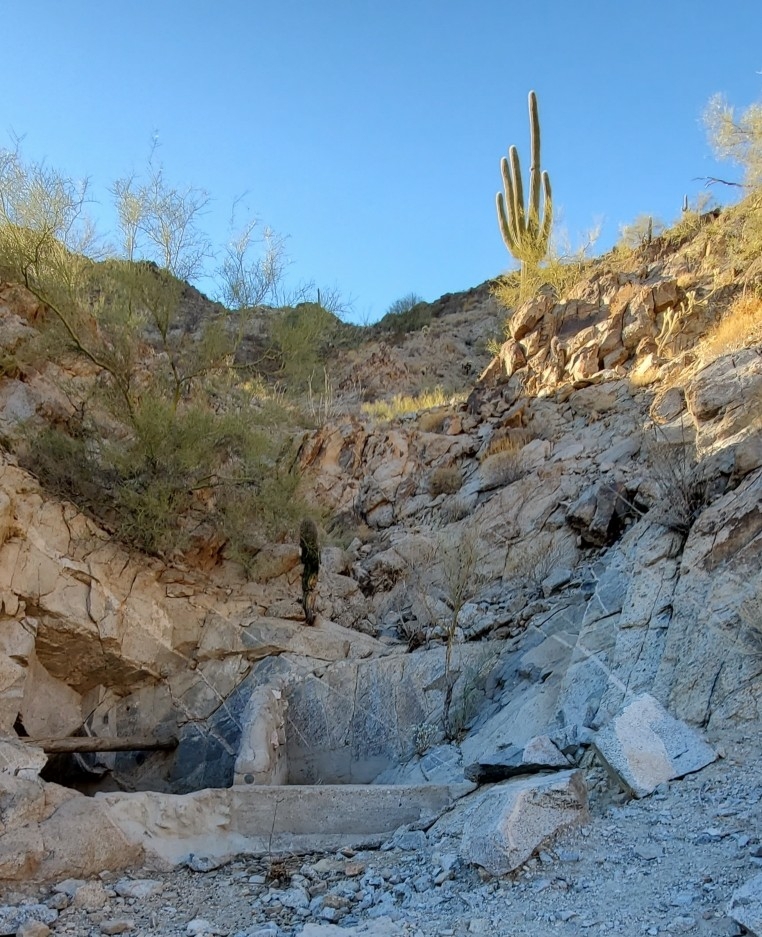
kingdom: Plantae
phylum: Tracheophyta
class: Magnoliopsida
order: Caryophyllales
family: Cactaceae
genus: Carnegiea
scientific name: Carnegiea gigantea
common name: Saguaro
